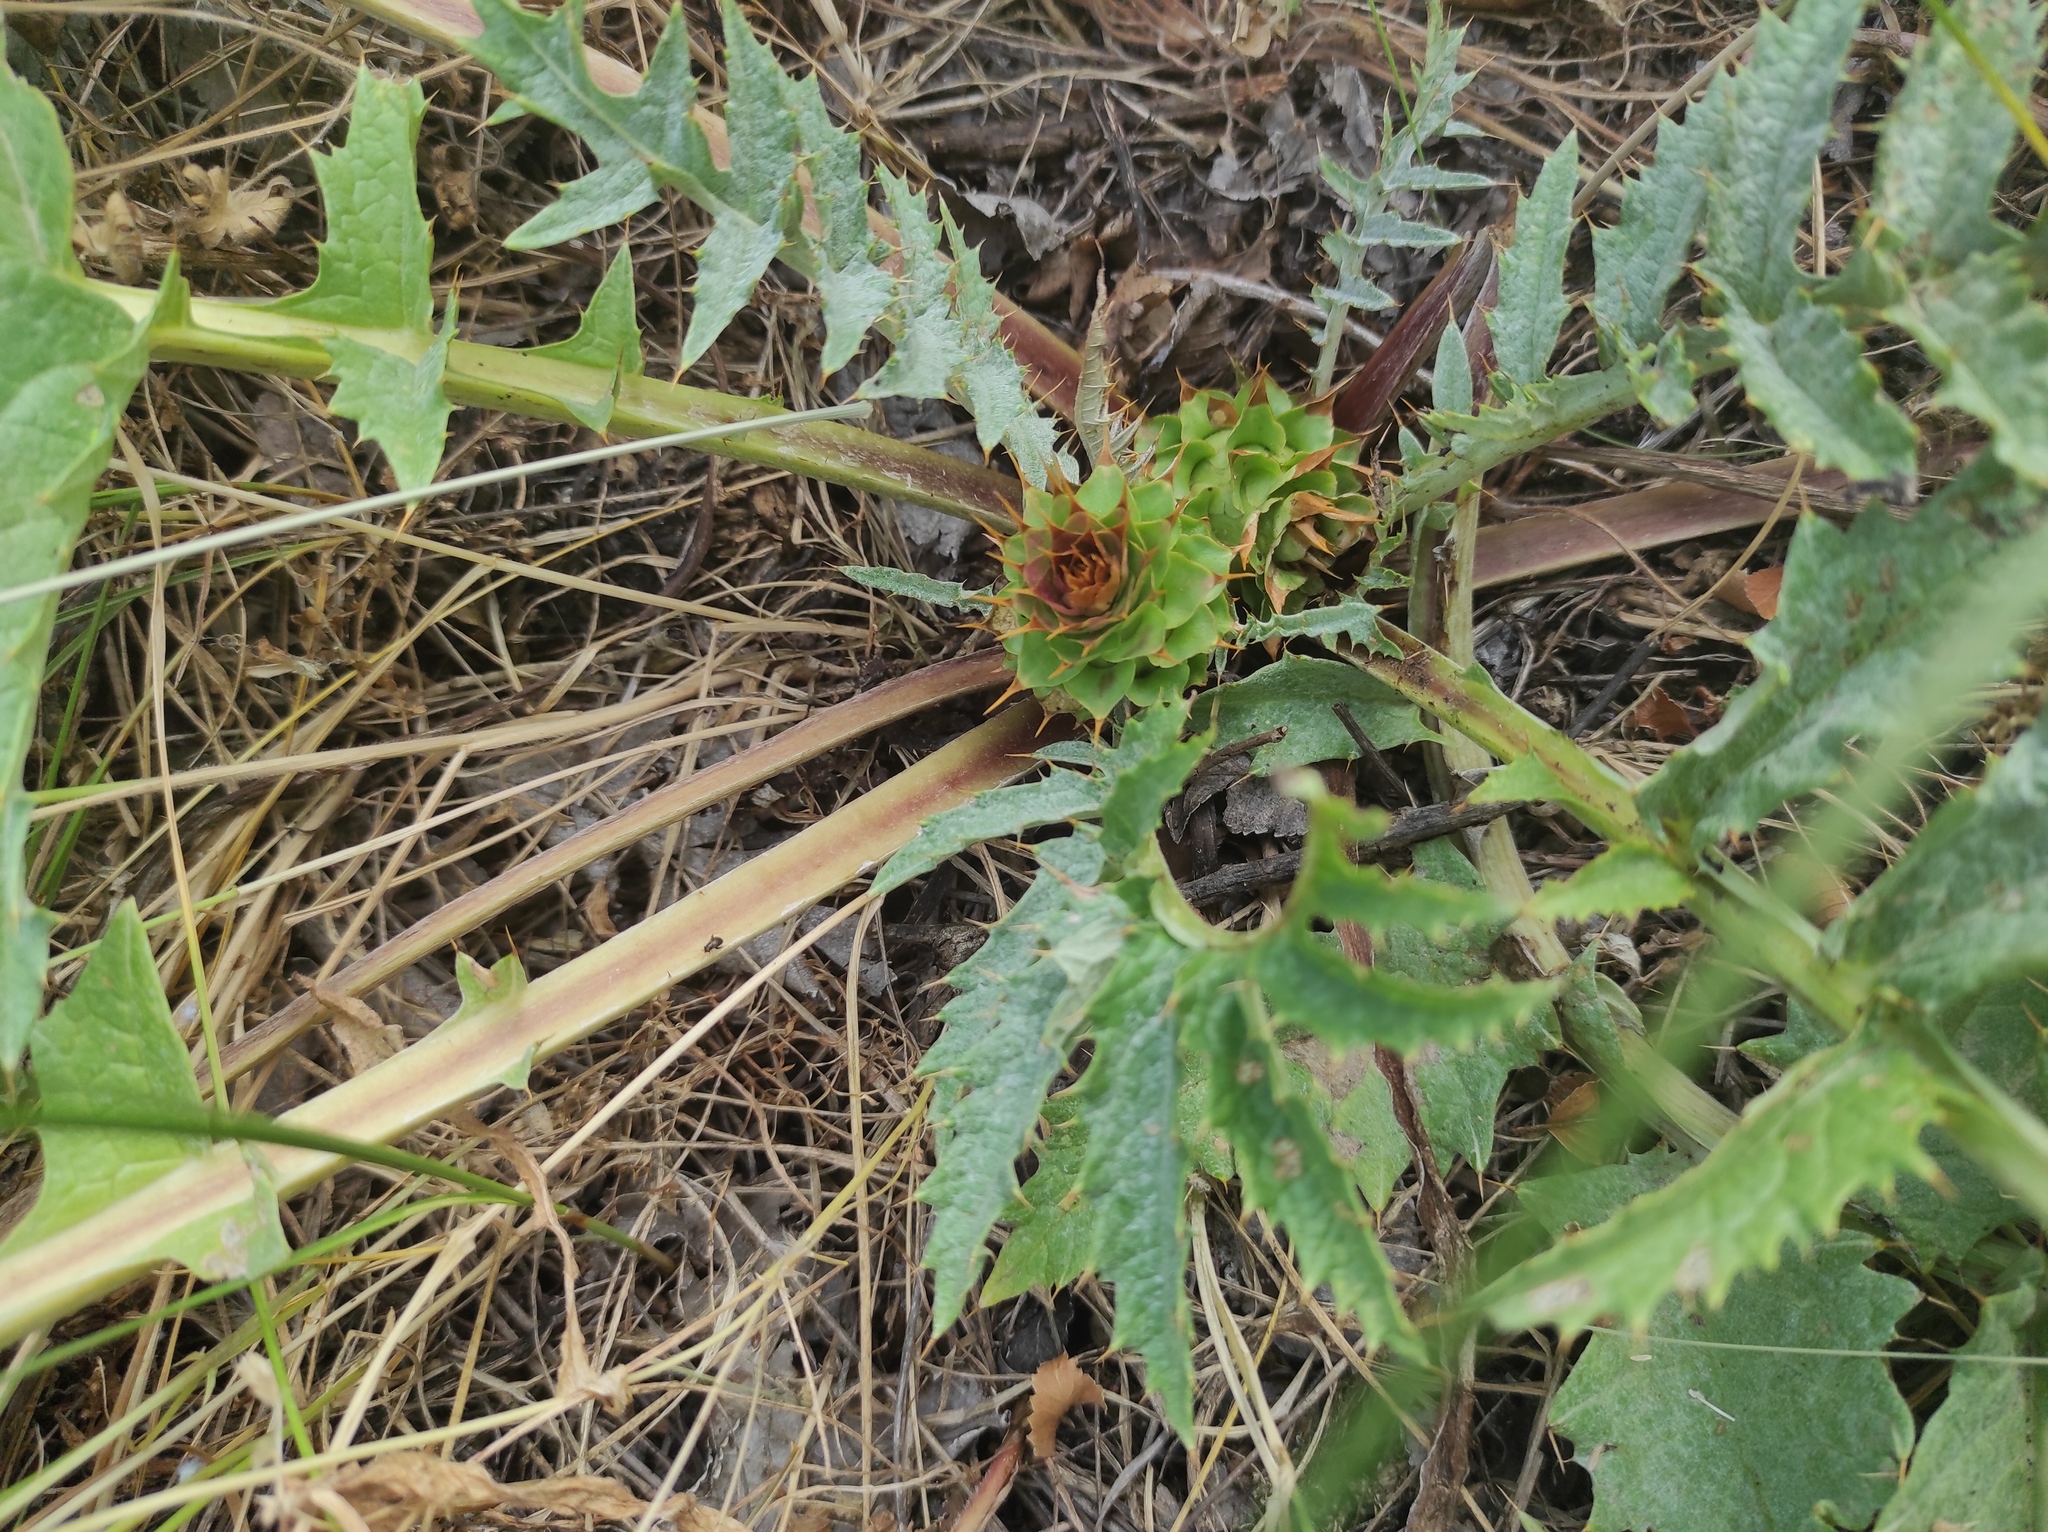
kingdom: Plantae
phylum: Tracheophyta
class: Magnoliopsida
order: Asterales
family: Asteraceae
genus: Cynara
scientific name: Cynara tournefortii
